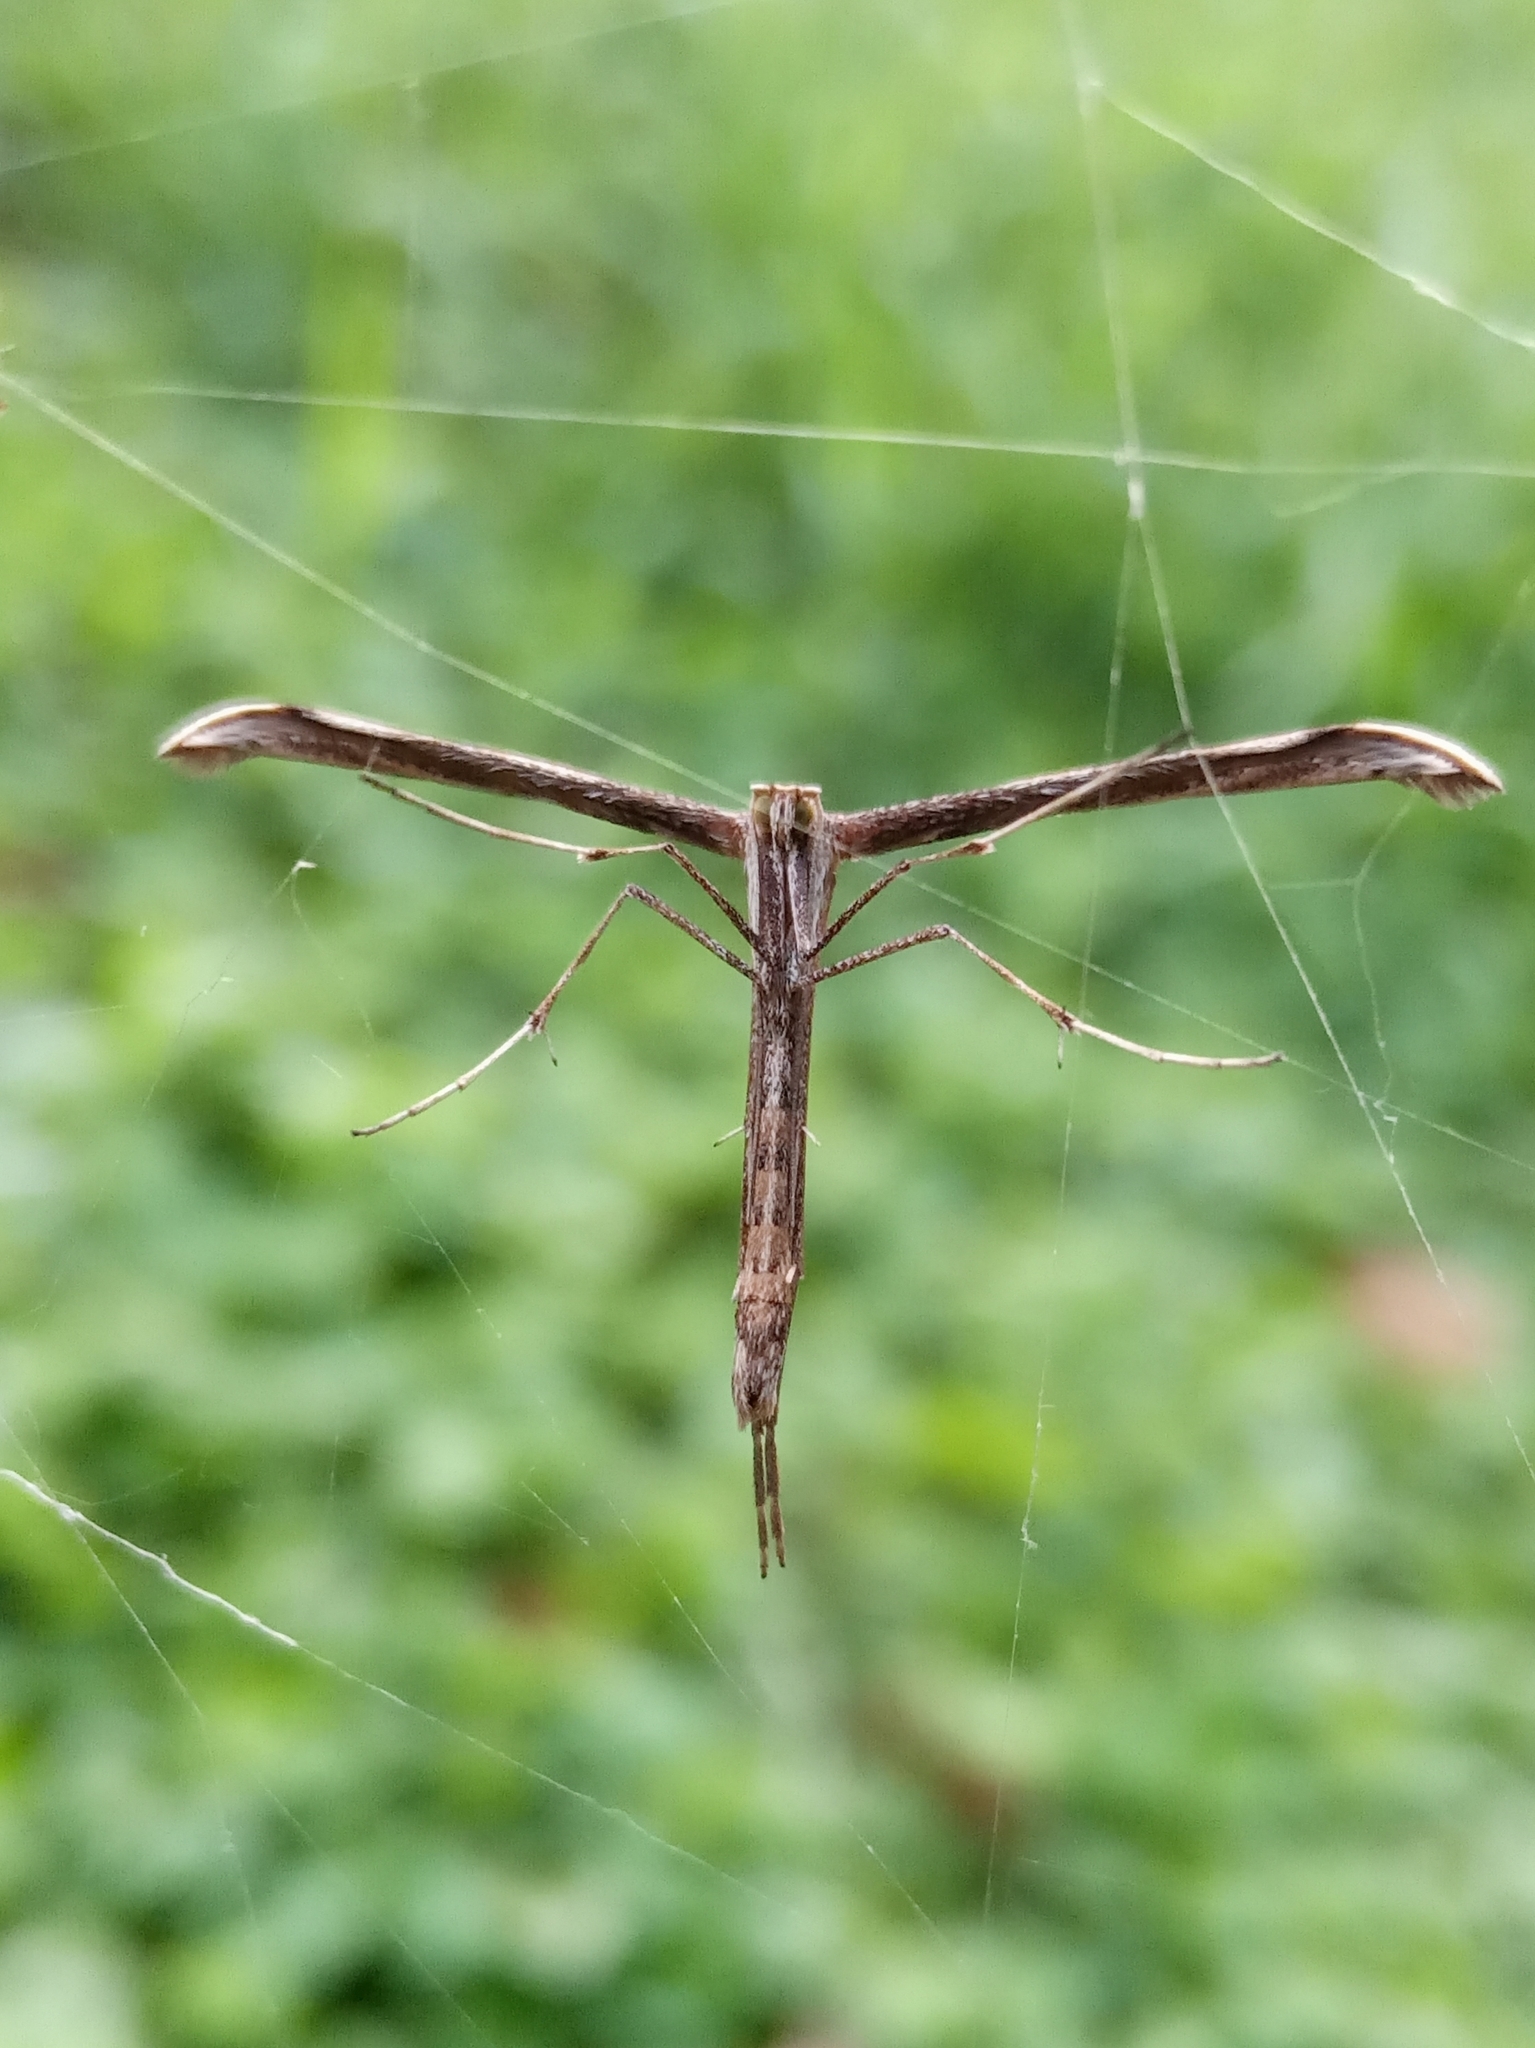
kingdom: Animalia
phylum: Arthropoda
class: Insecta
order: Lepidoptera
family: Pterophoridae
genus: Emmelina
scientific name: Emmelina monodactyla
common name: Common plume
